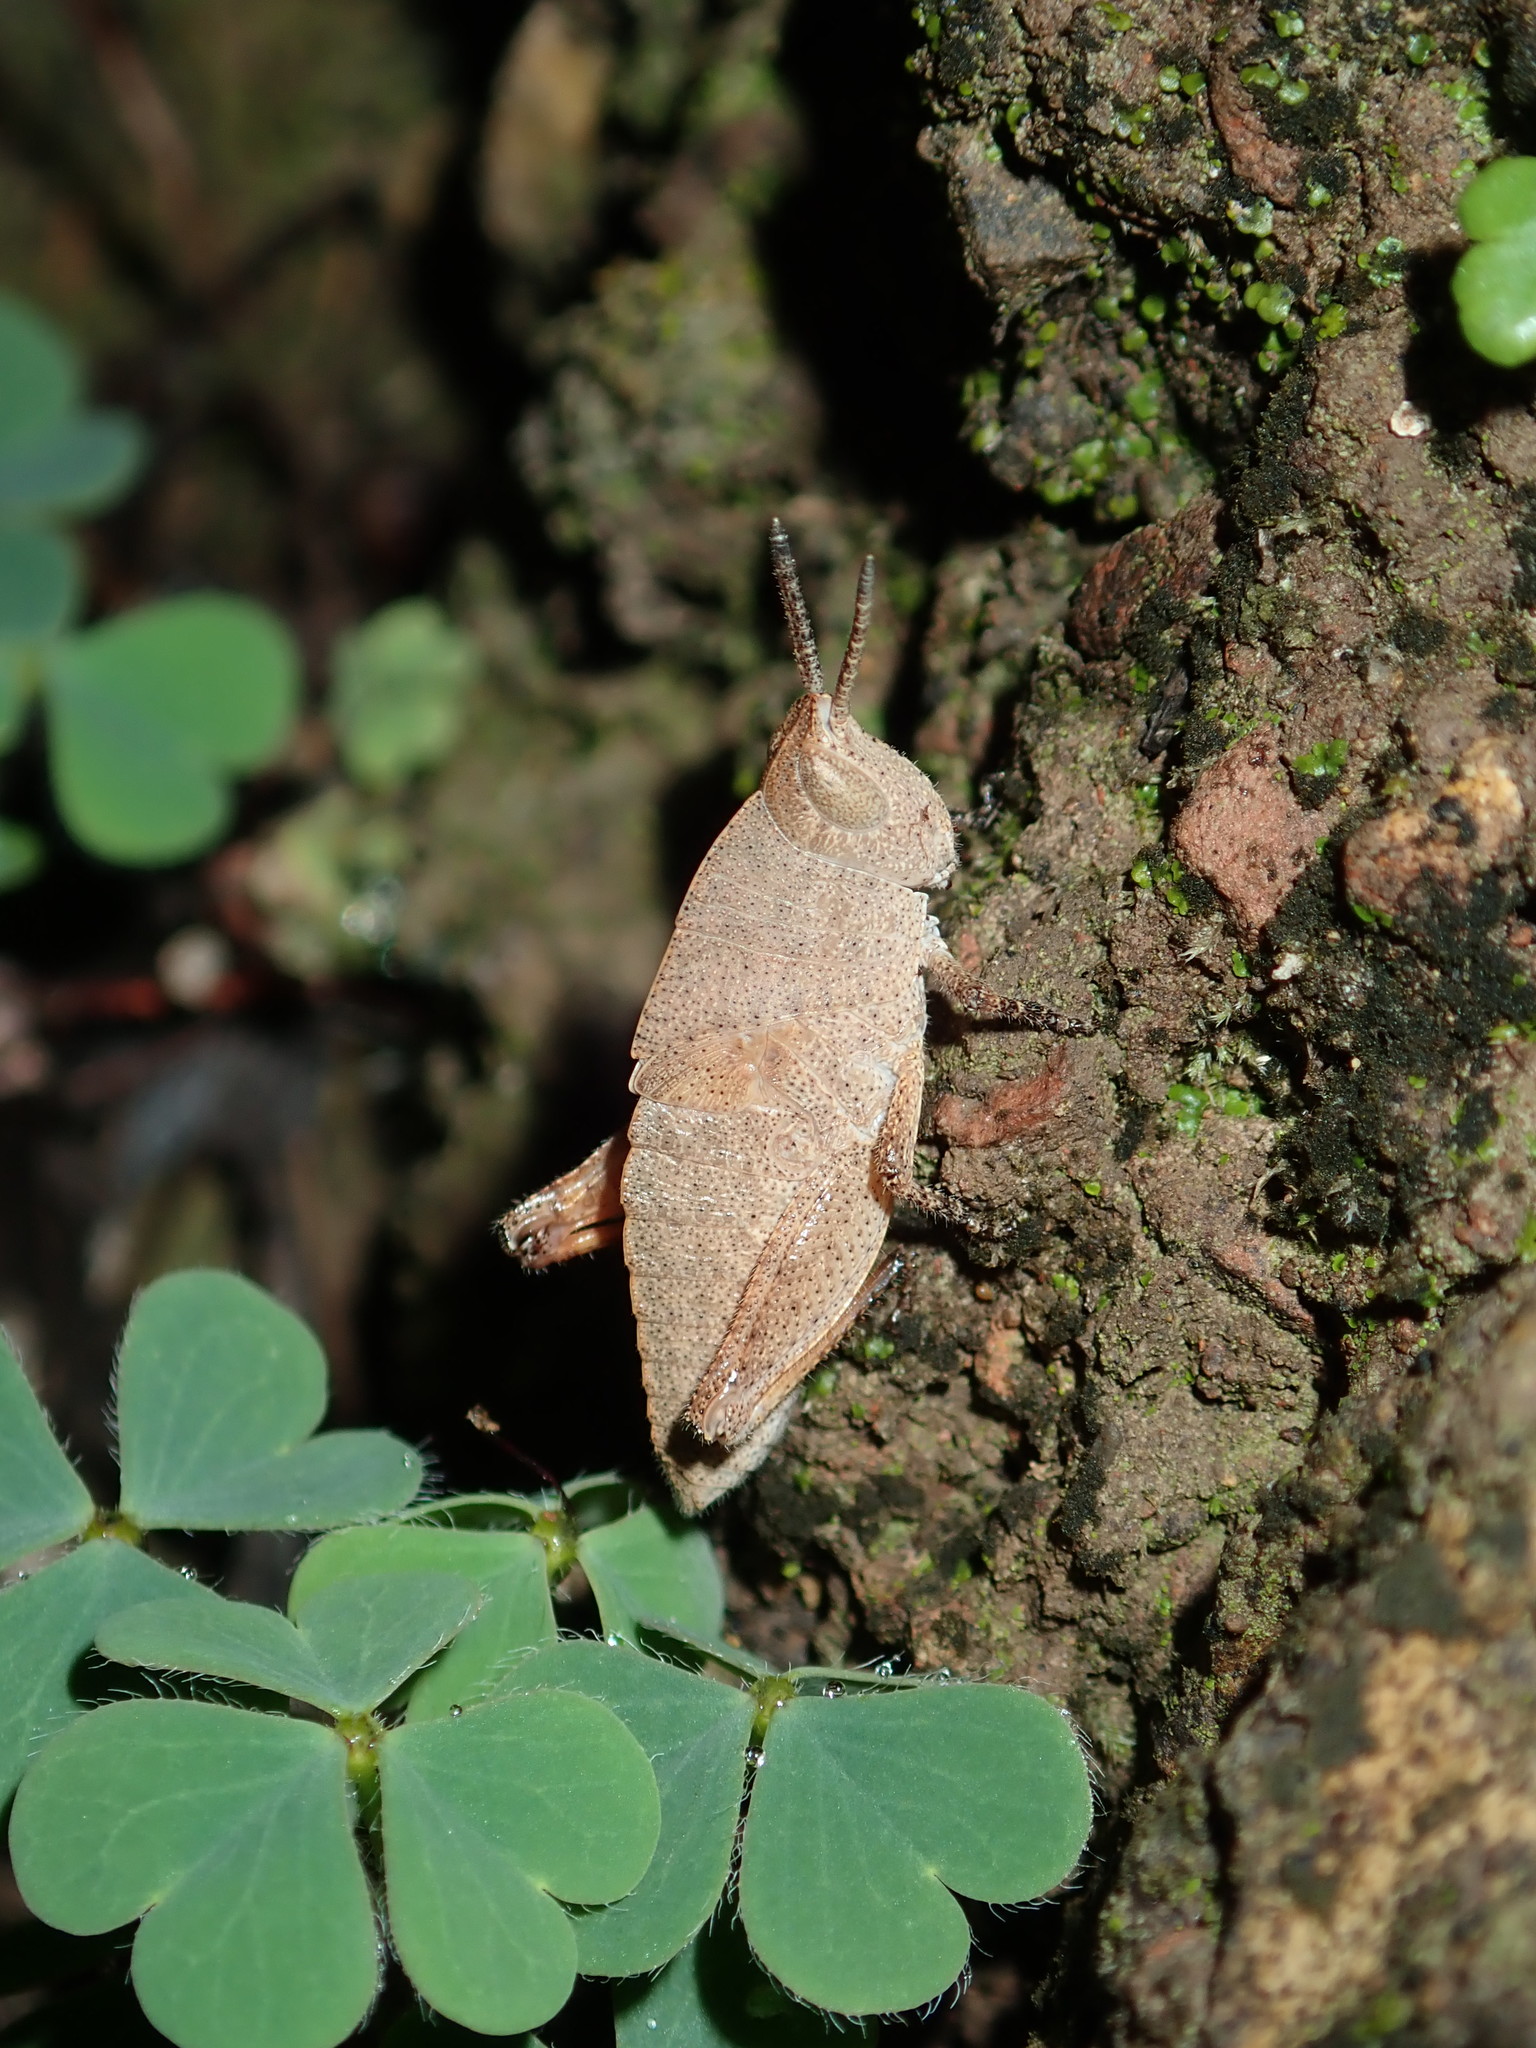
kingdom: Animalia
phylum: Arthropoda
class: Insecta
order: Orthoptera
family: Acrididae
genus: Goniaea
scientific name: Goniaea vocans
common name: Slender gumleaf grasshopper
